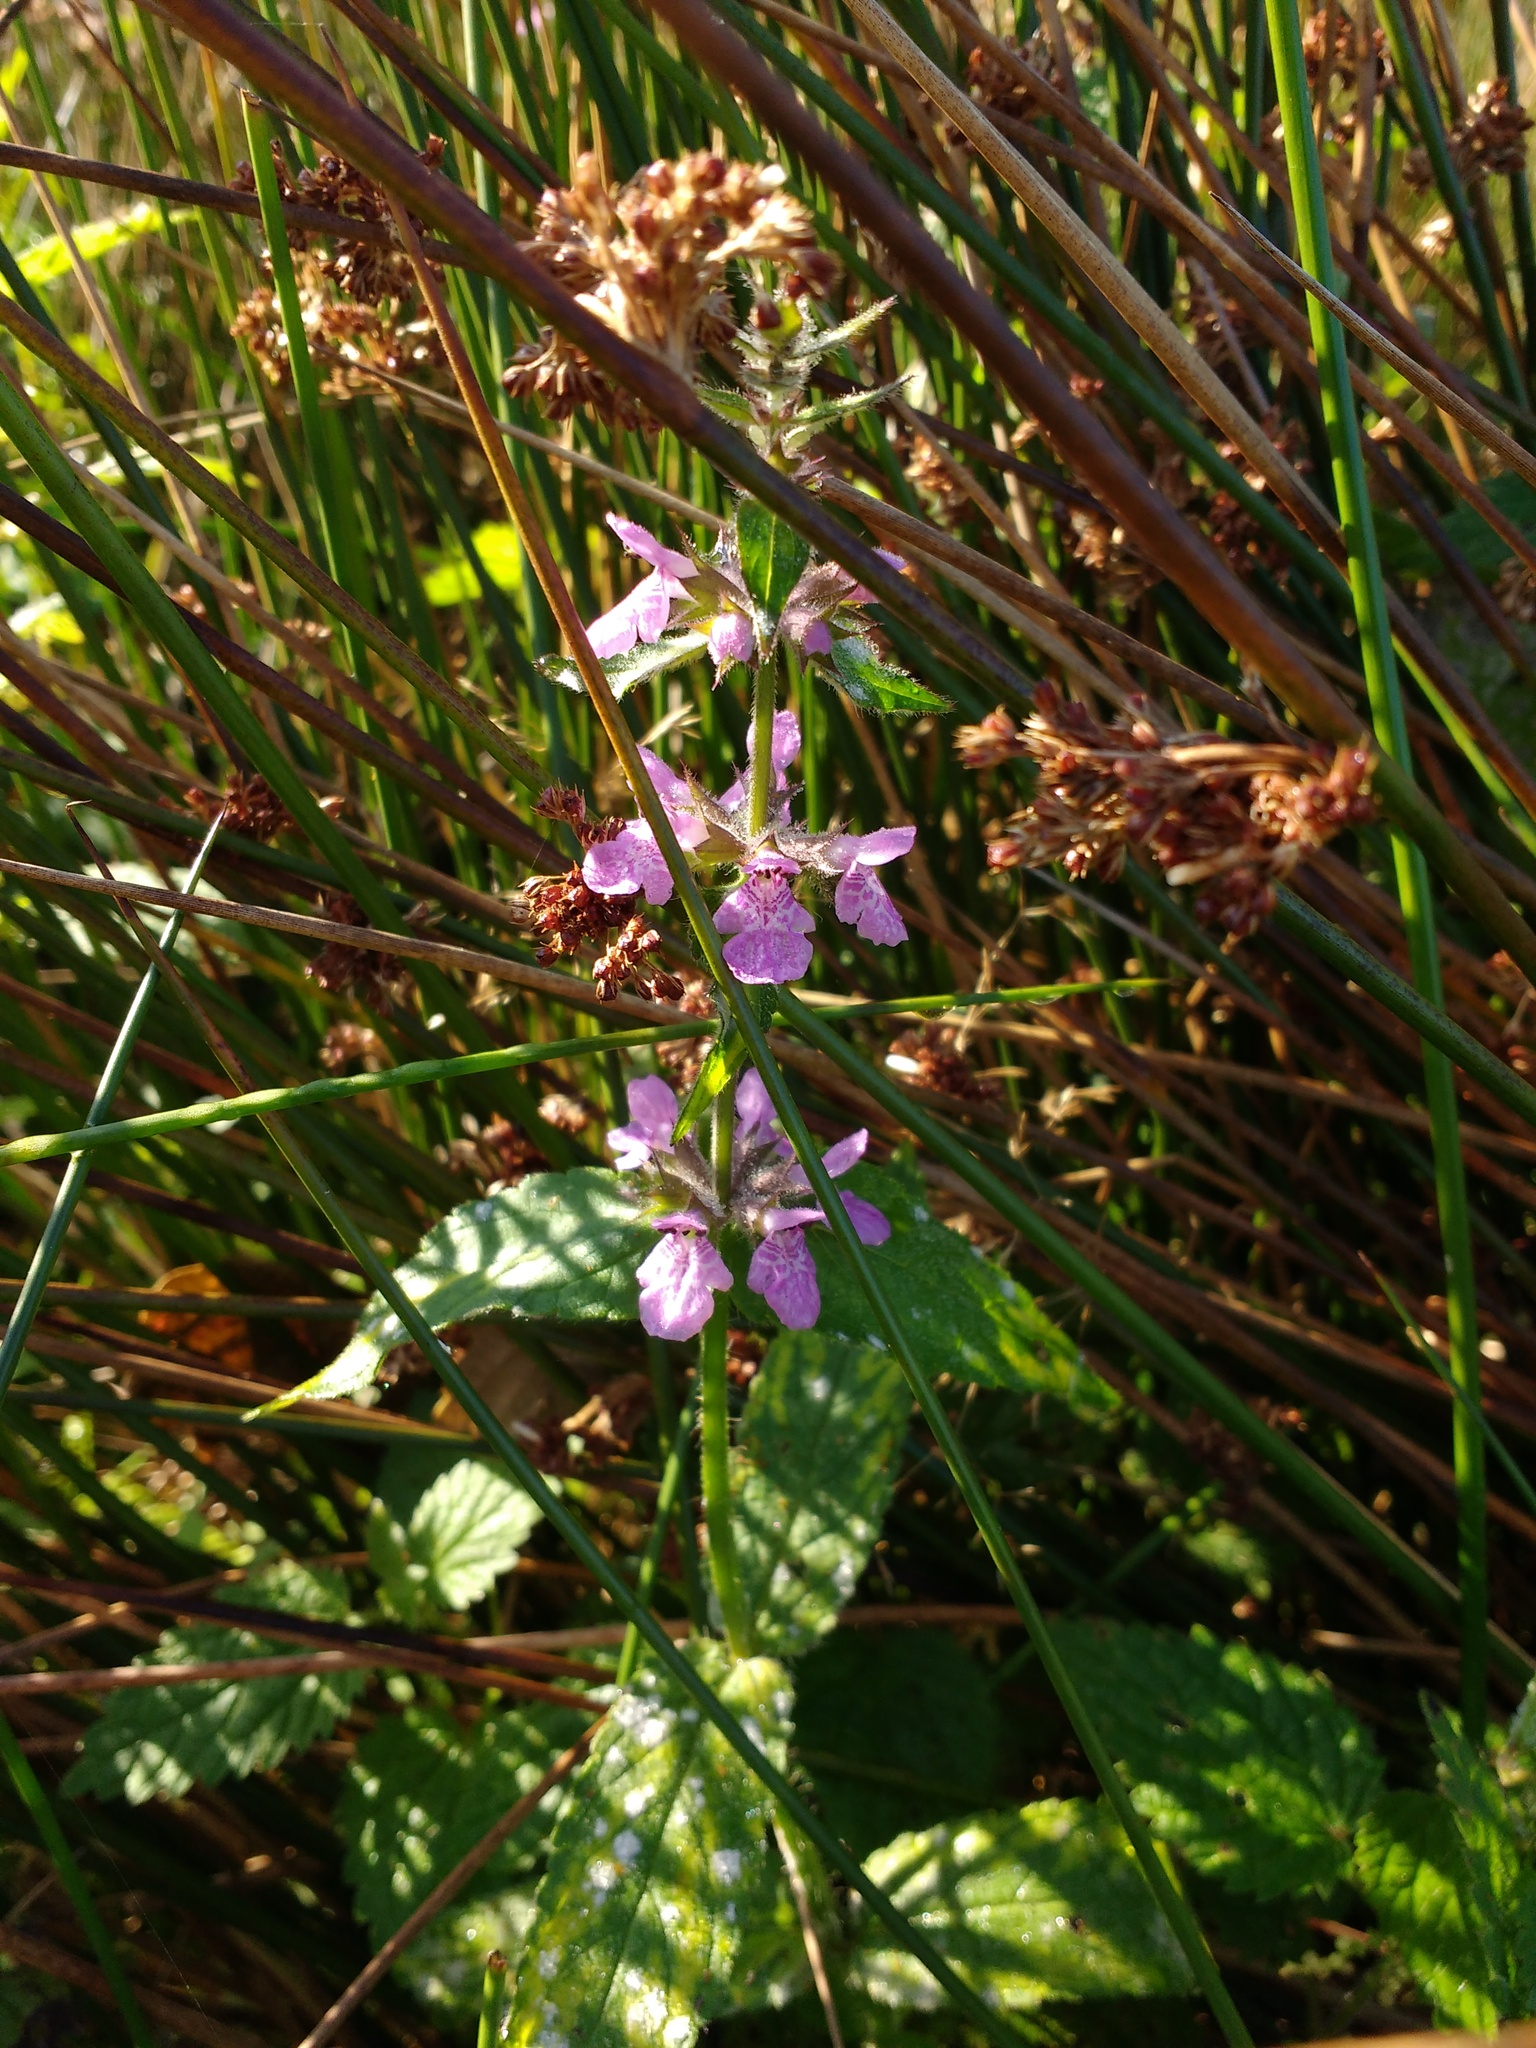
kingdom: Plantae
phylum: Tracheophyta
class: Magnoliopsida
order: Lamiales
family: Lamiaceae
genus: Stachys
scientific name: Stachys palustris
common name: Marsh woundwort
